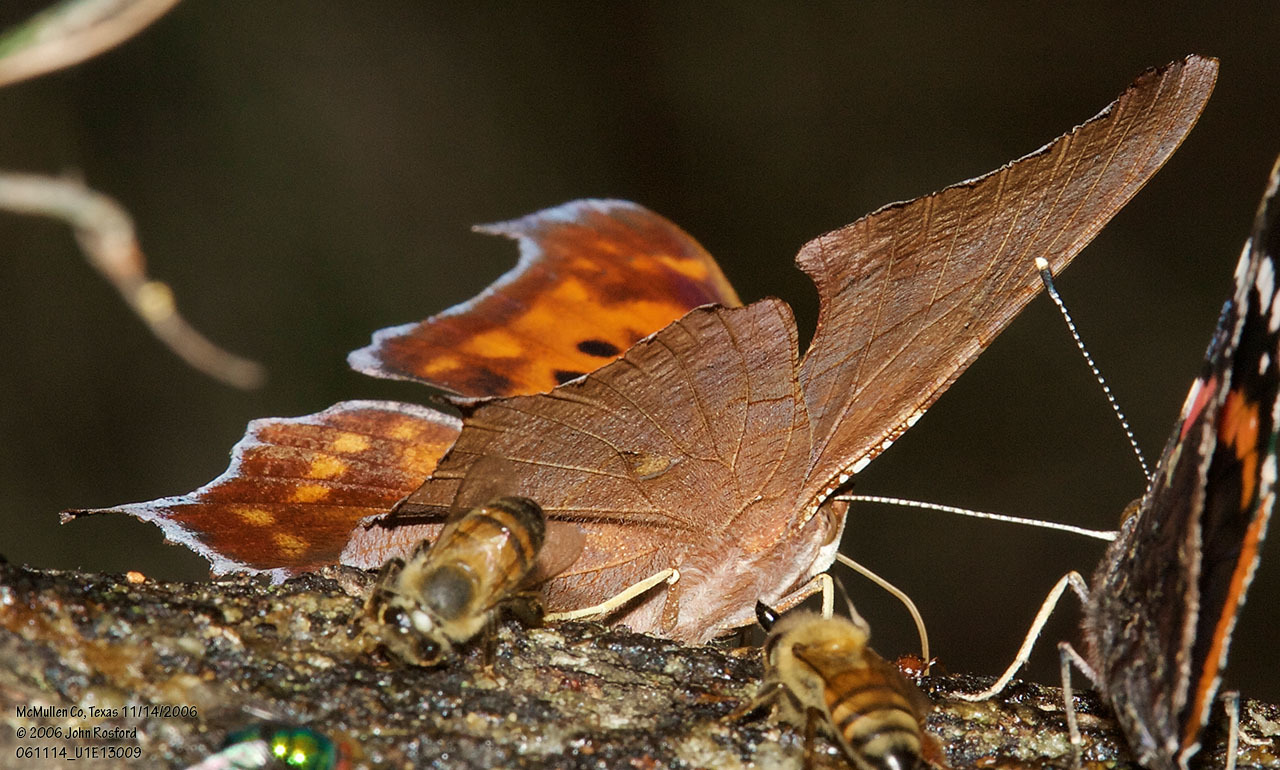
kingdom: Animalia
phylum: Arthropoda
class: Insecta
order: Lepidoptera
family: Nymphalidae
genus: Polygonia
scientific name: Polygonia interrogationis
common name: Question mark
